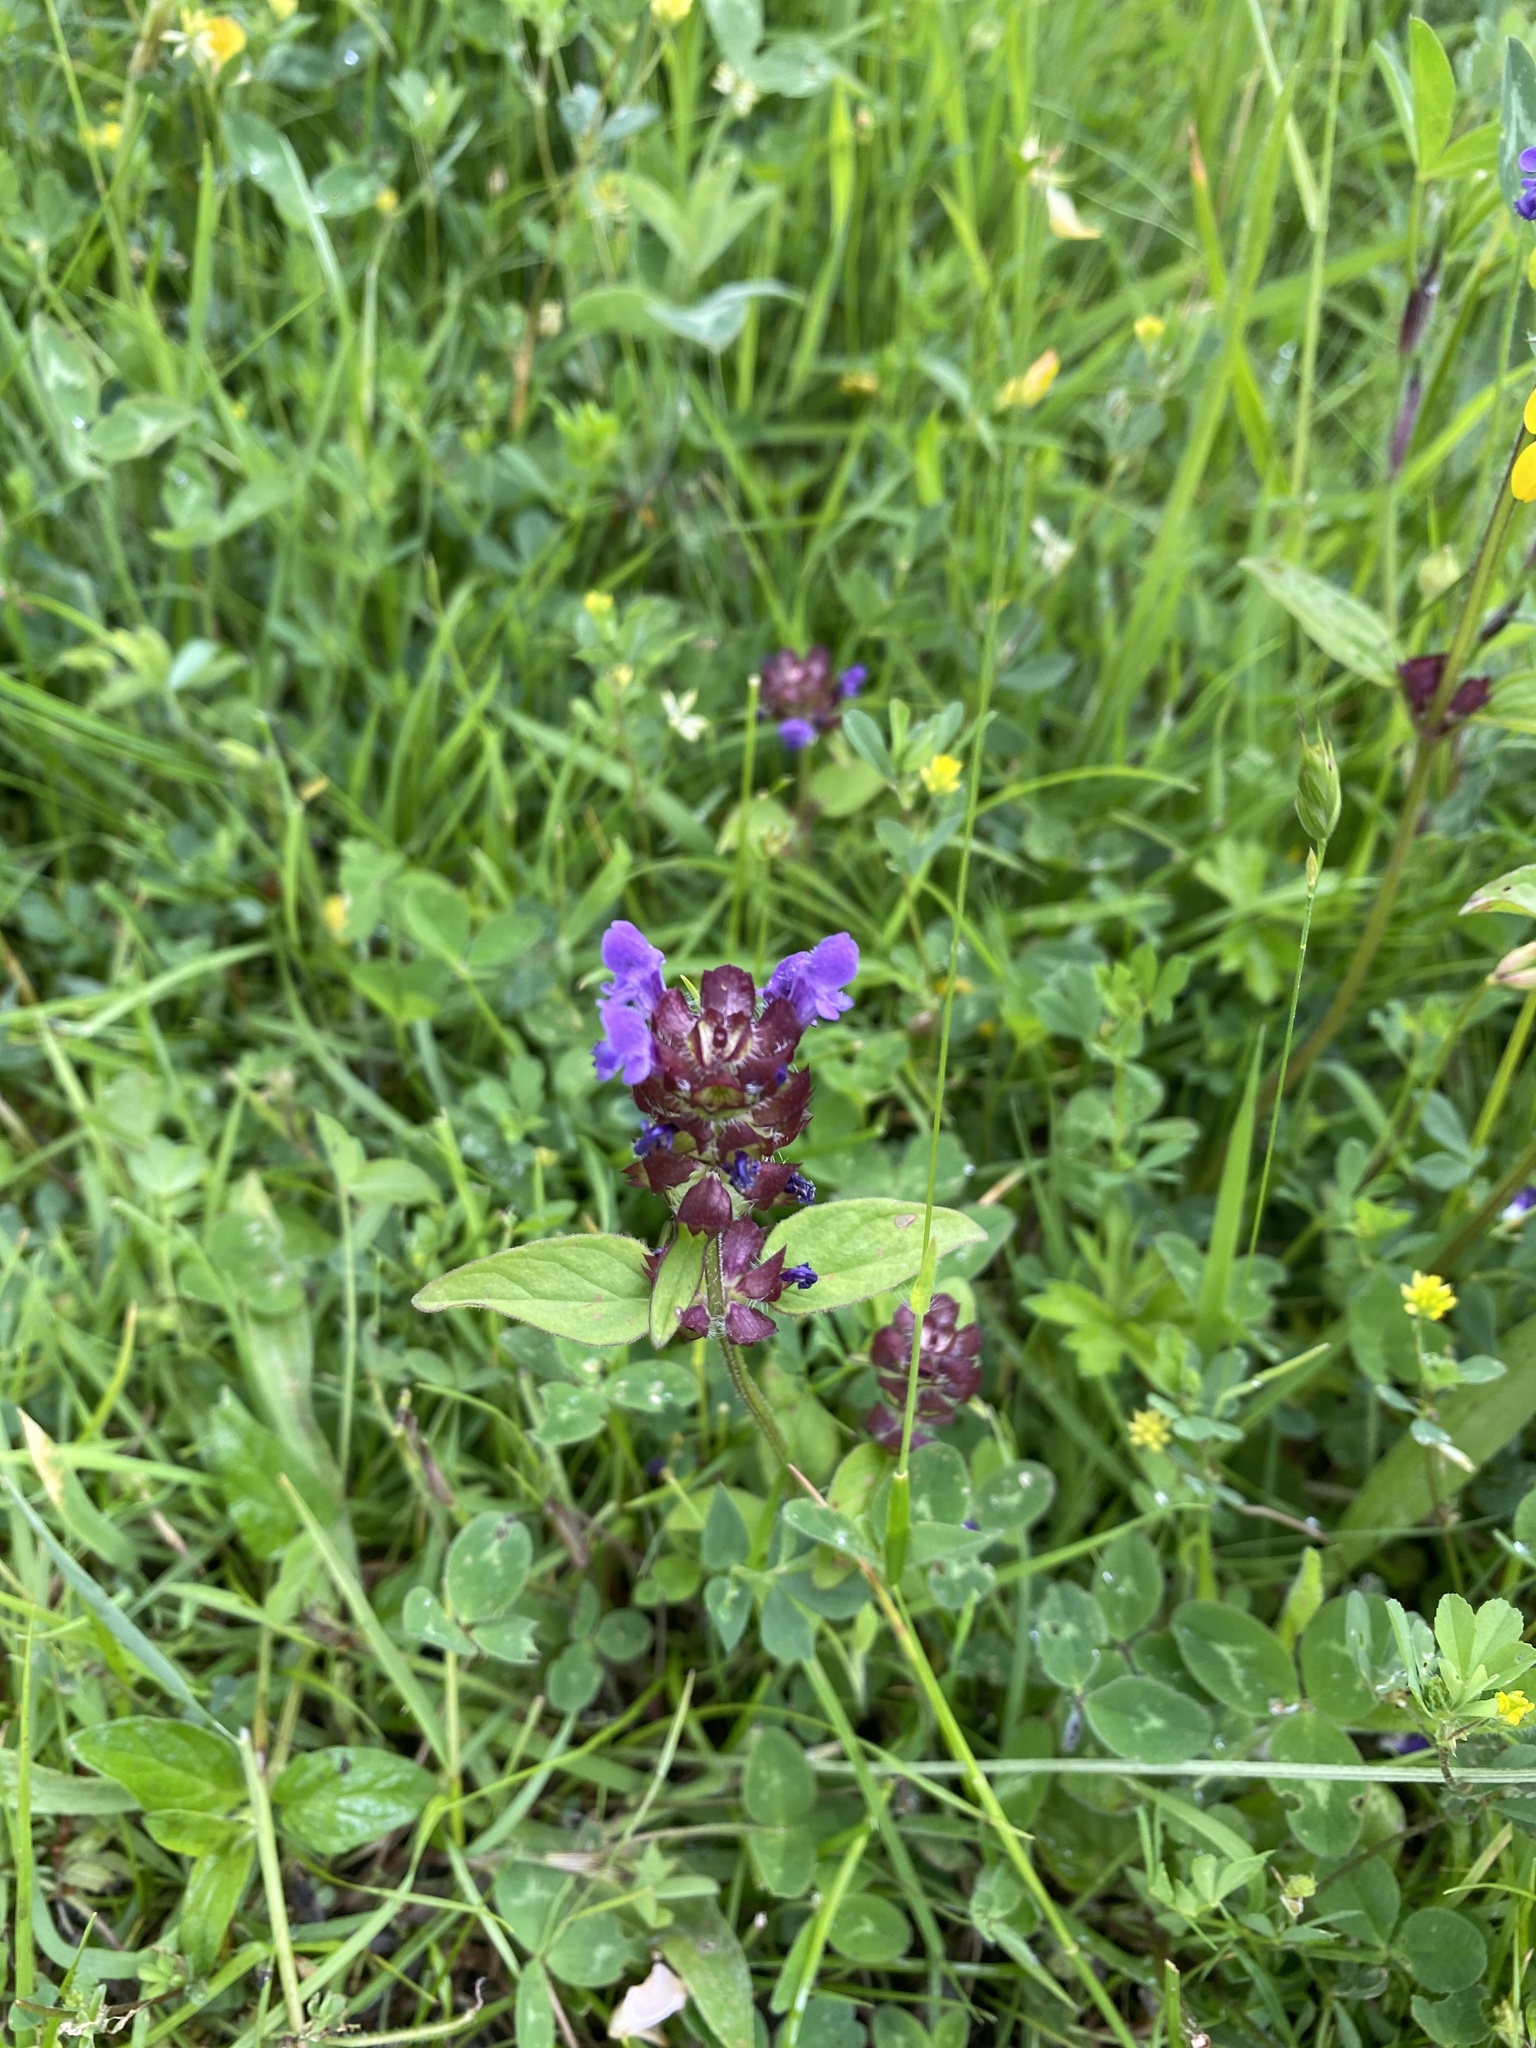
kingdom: Plantae
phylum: Tracheophyta
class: Magnoliopsida
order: Lamiales
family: Lamiaceae
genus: Prunella
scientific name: Prunella vulgaris
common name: Heal-all
